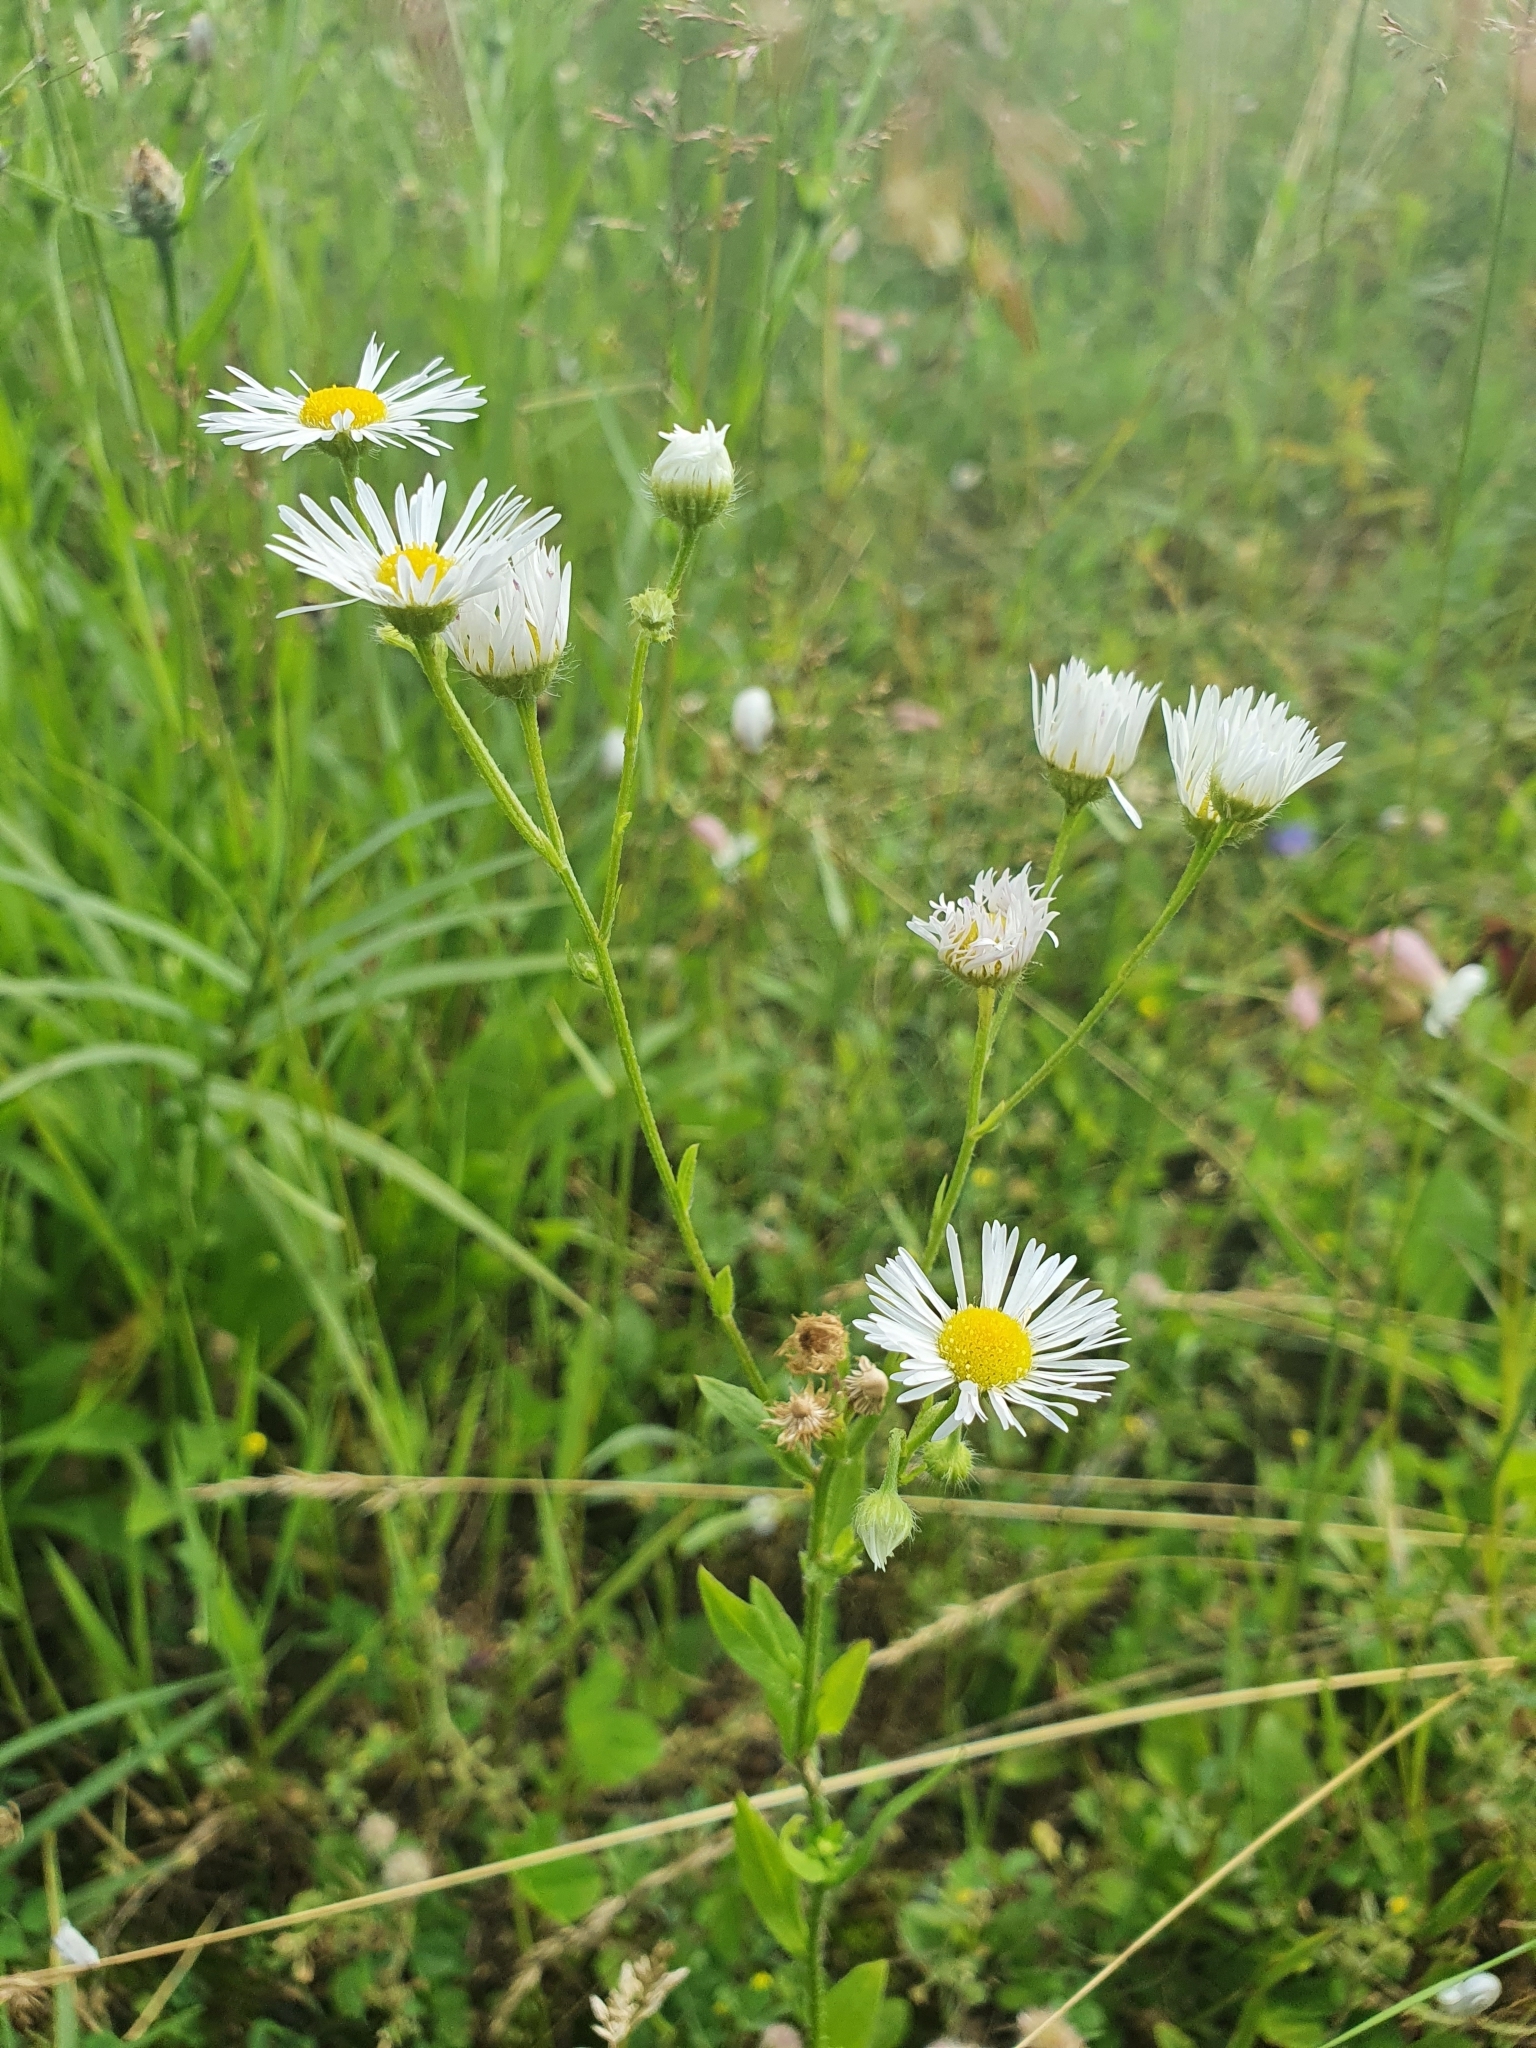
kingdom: Plantae
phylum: Tracheophyta
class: Magnoliopsida
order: Asterales
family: Asteraceae
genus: Erigeron
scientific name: Erigeron annuus
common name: Tall fleabane
